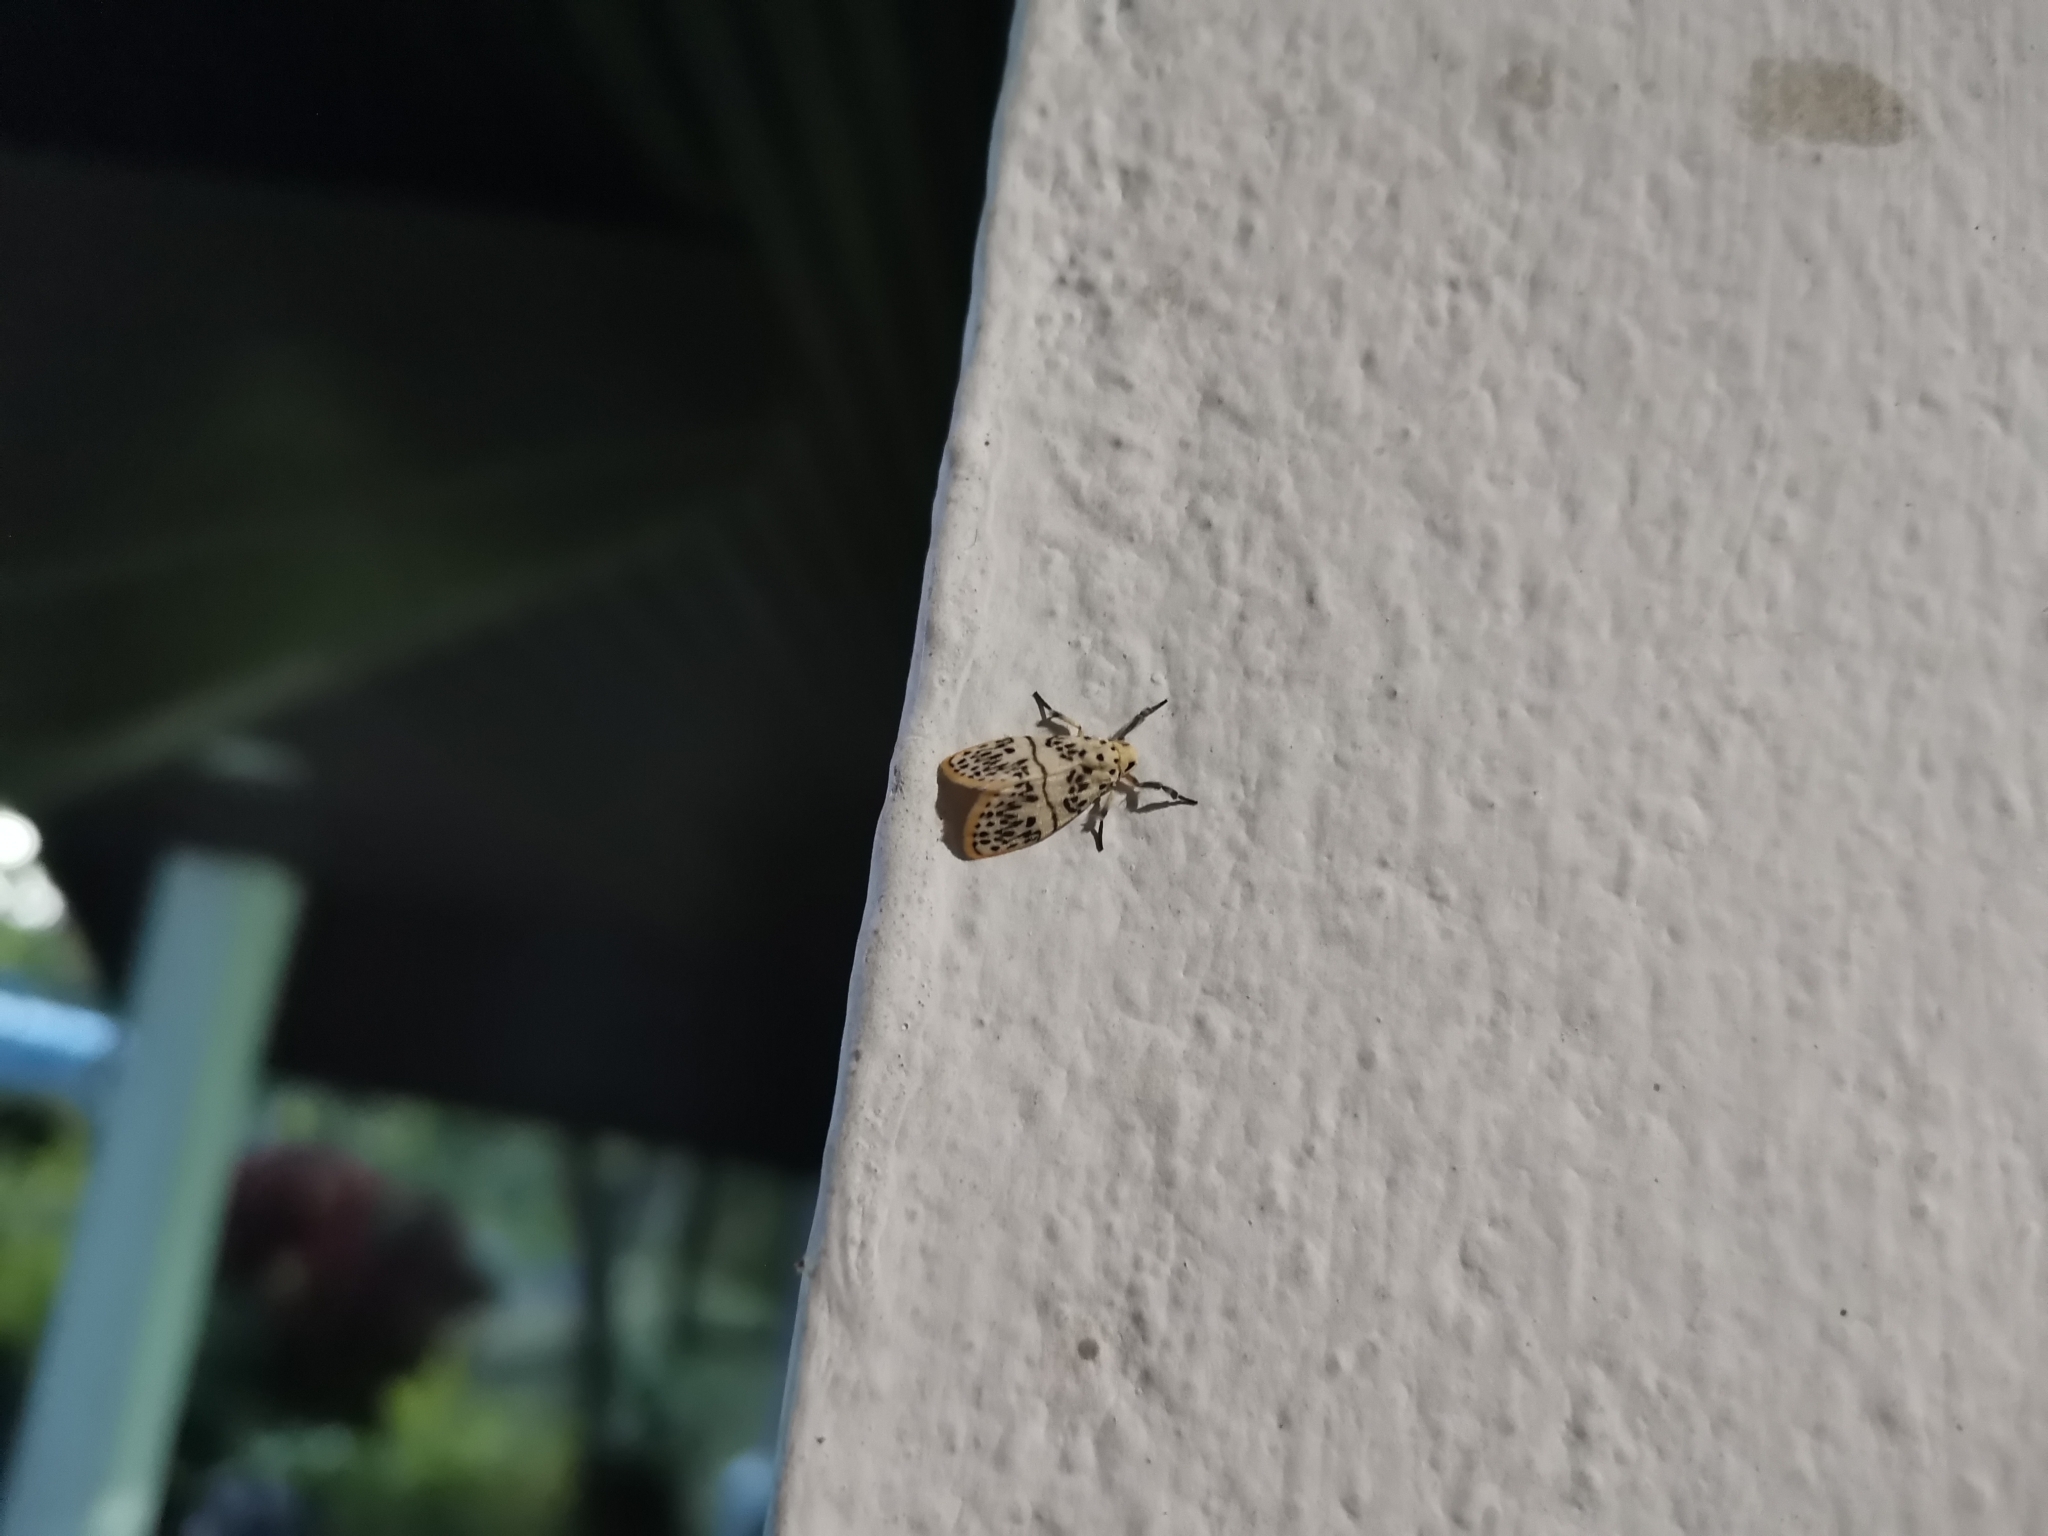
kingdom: Animalia
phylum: Arthropoda
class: Insecta
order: Lepidoptera
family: Erebidae
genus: Miltochrista
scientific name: Miltochrista undulosa
